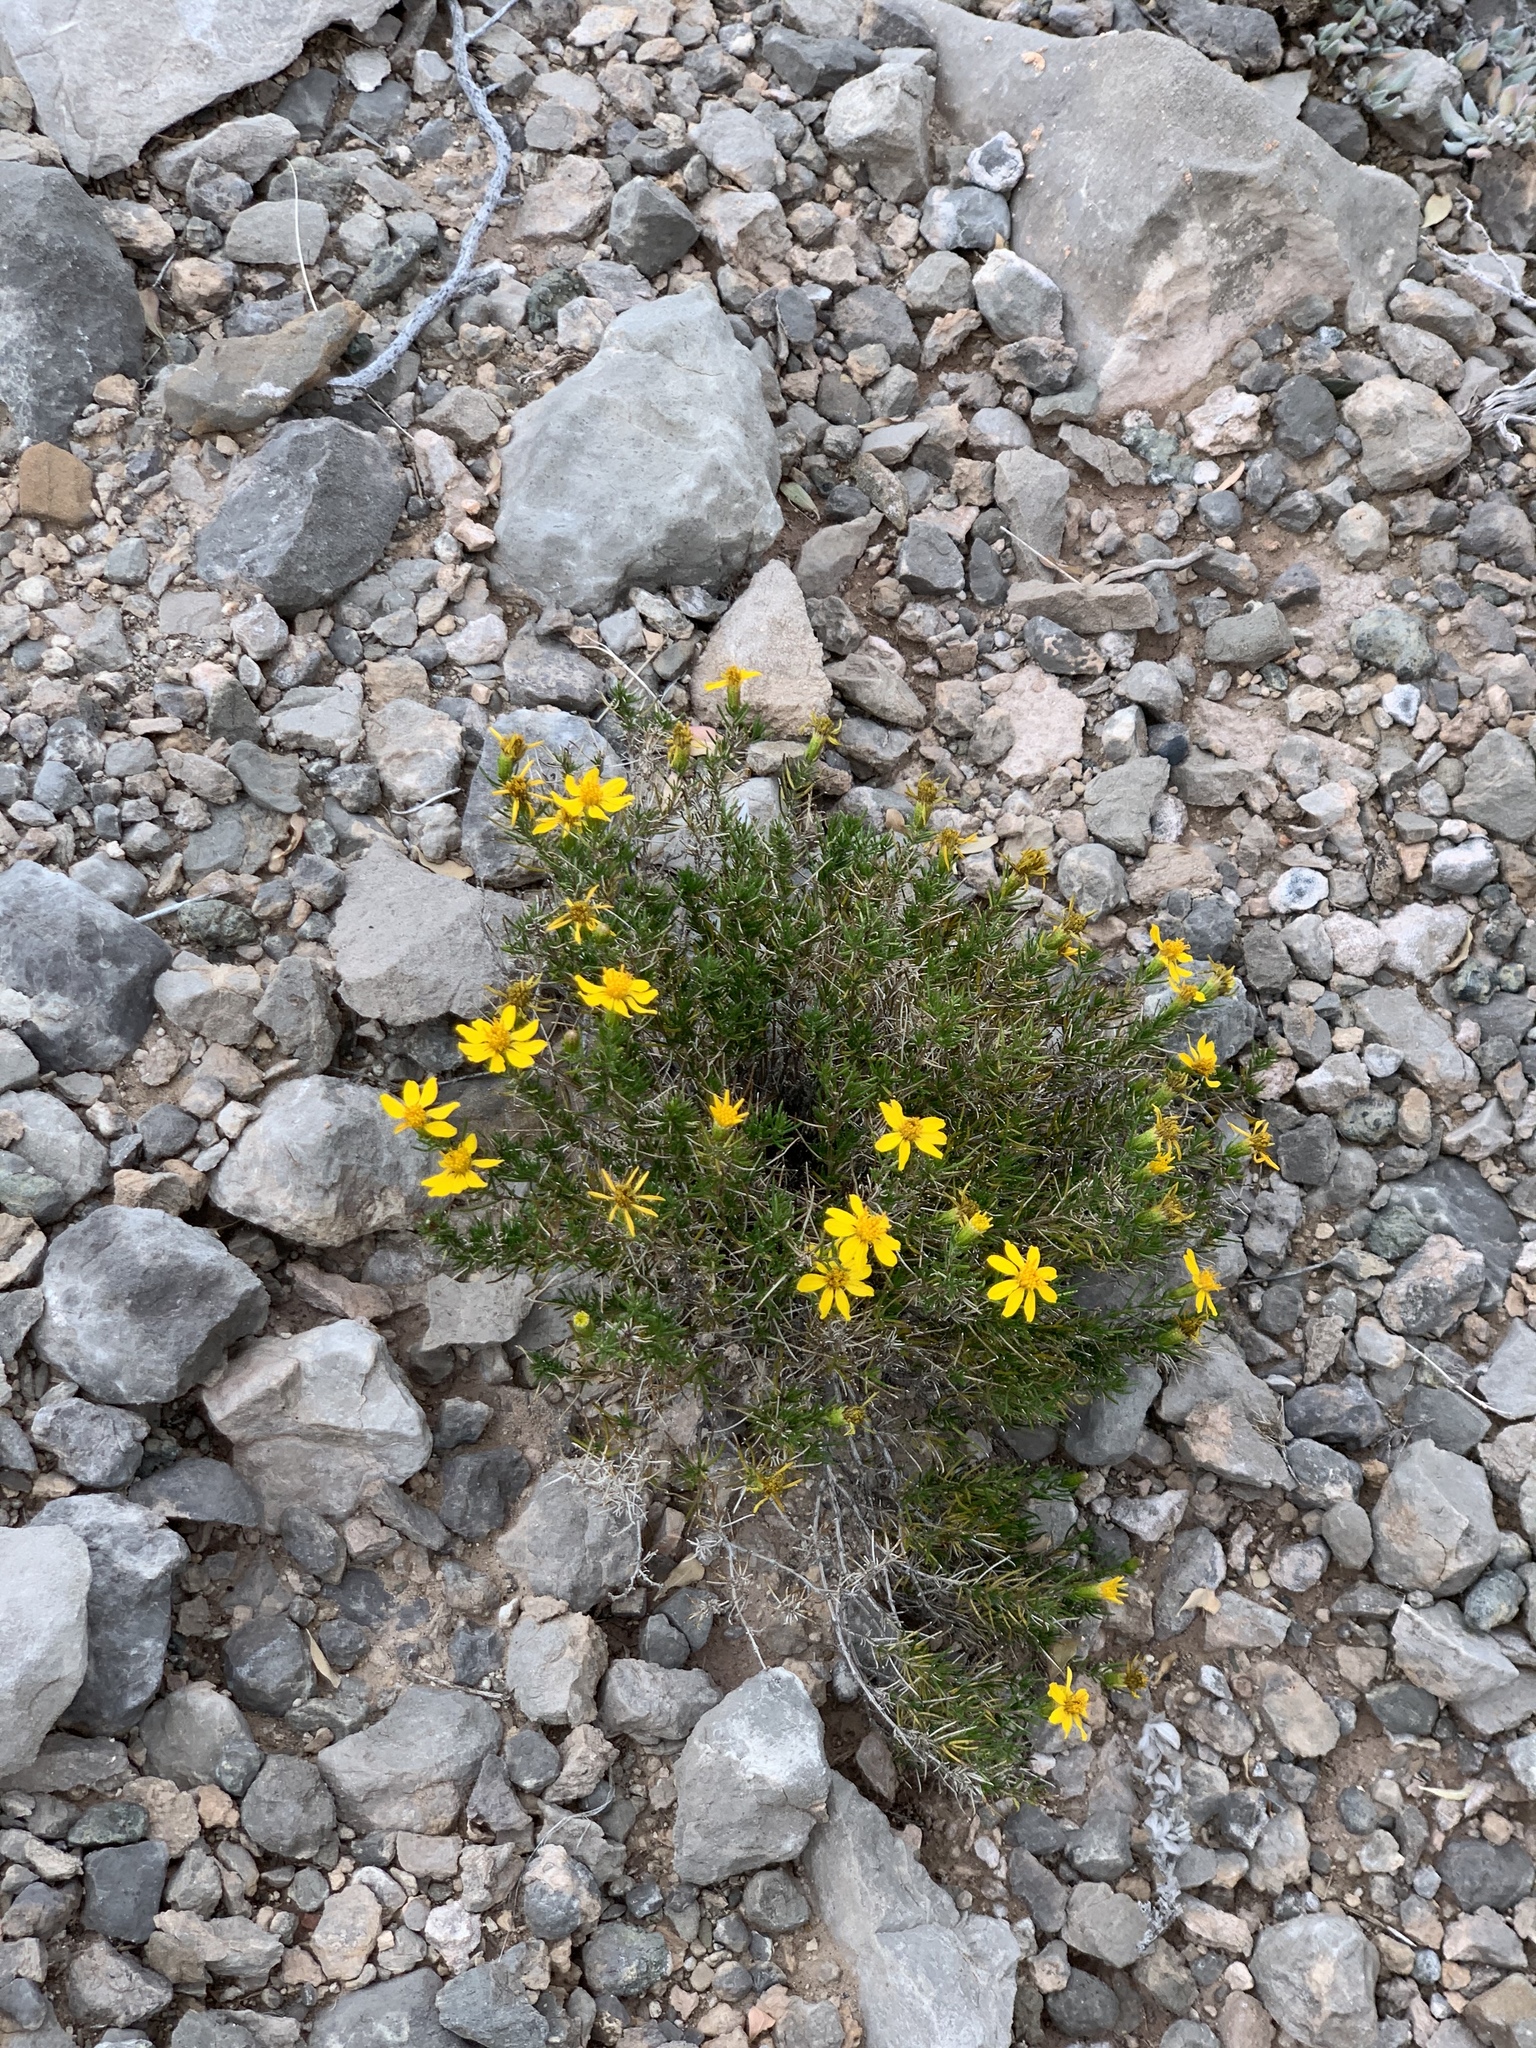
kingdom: Plantae
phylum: Tracheophyta
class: Magnoliopsida
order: Asterales
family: Asteraceae
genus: Thymophylla
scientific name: Thymophylla acerosa
